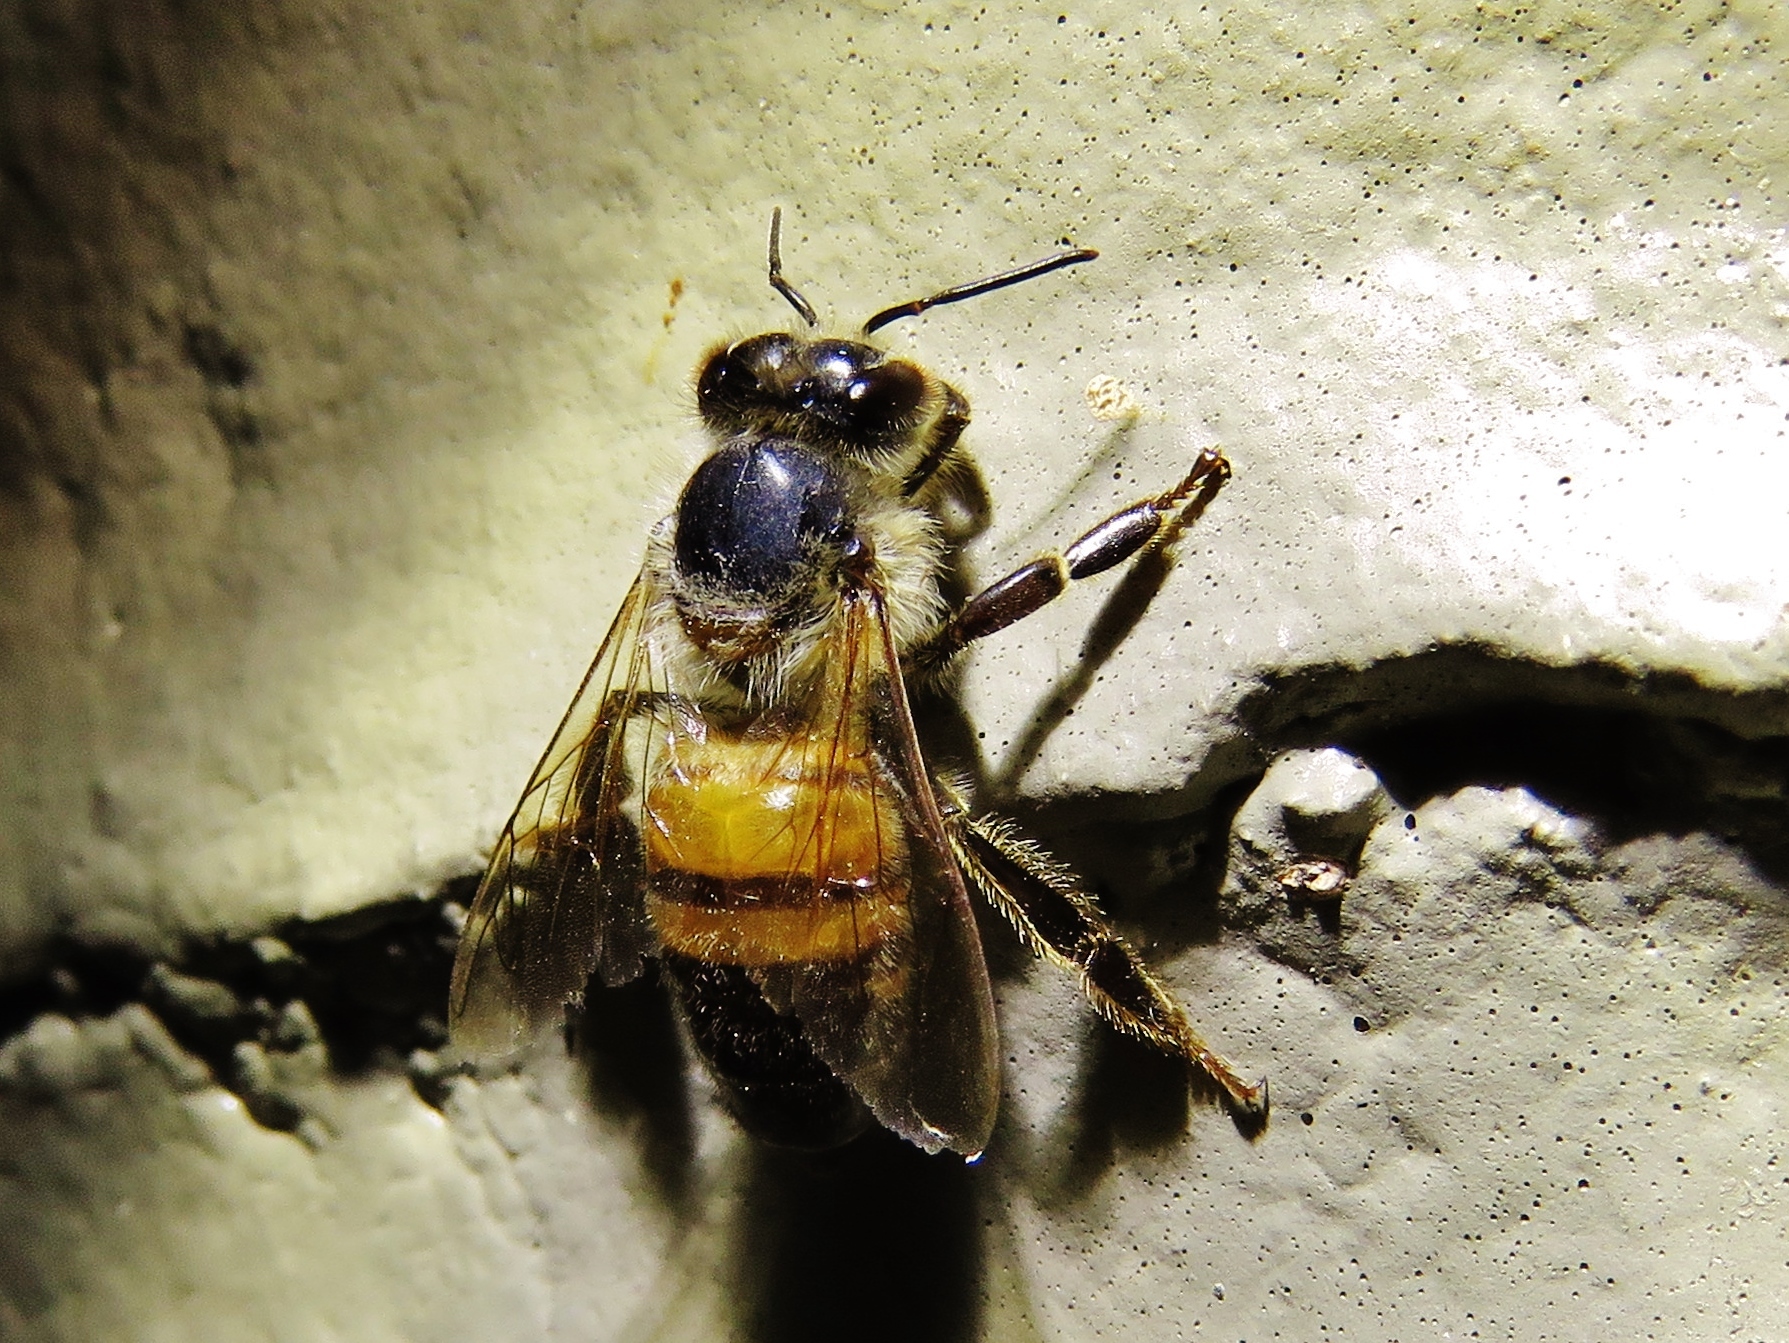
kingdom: Animalia
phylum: Arthropoda
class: Insecta
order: Hymenoptera
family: Apidae
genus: Apis
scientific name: Apis mellifera
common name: Honey bee
